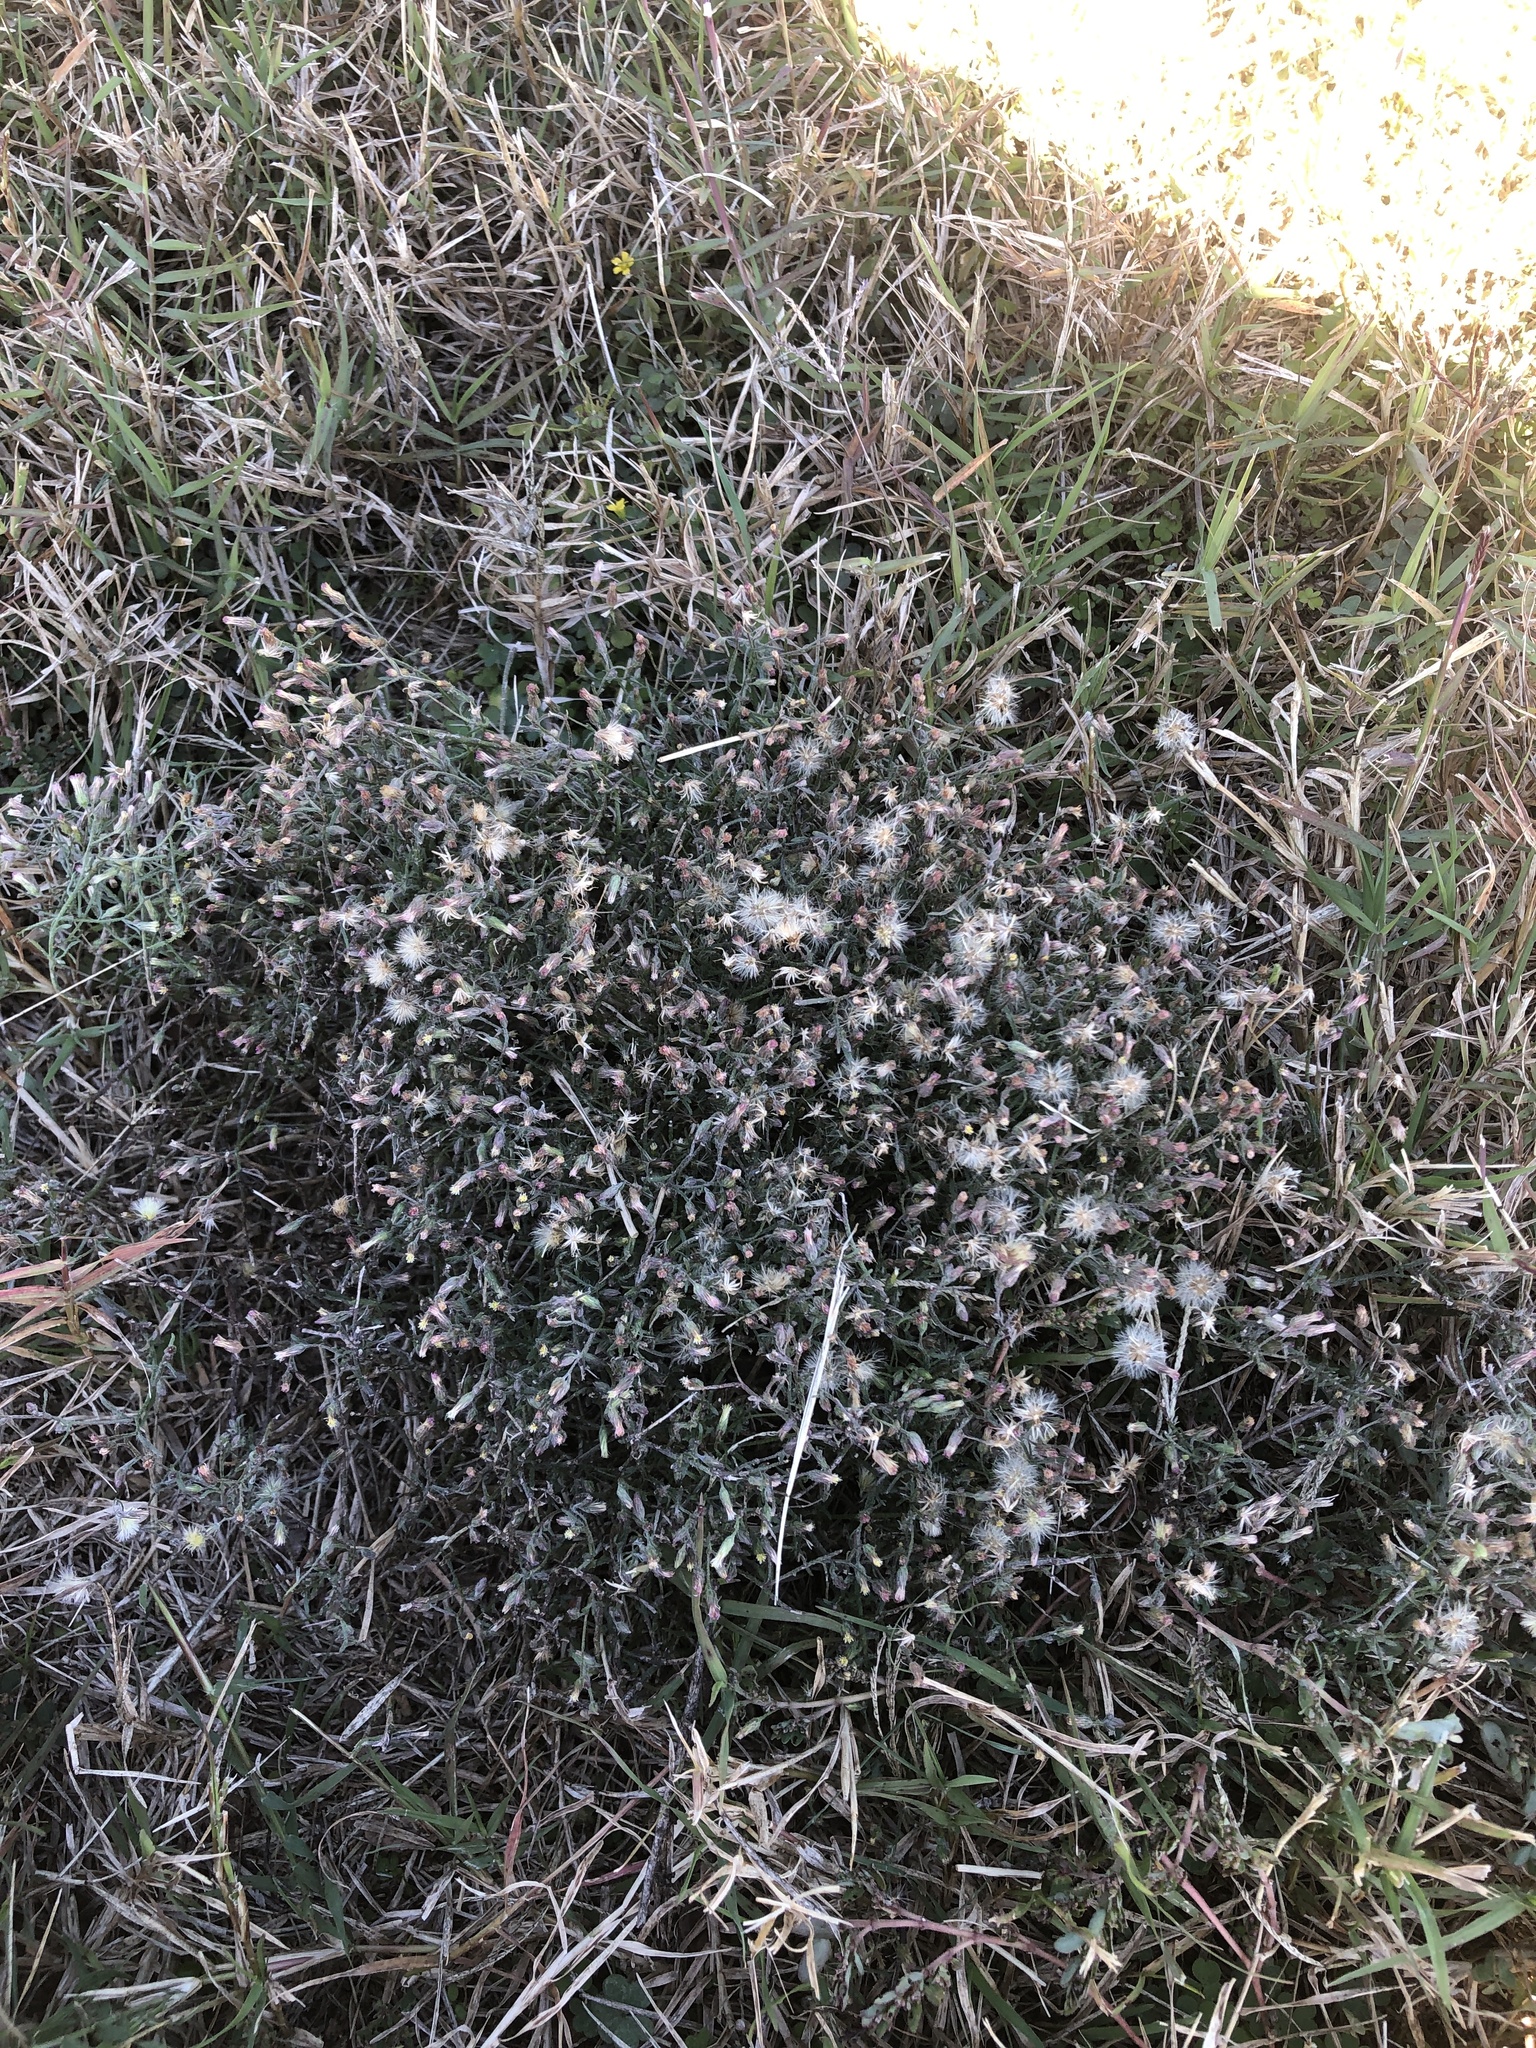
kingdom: Plantae
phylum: Tracheophyta
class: Magnoliopsida
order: Asterales
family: Asteraceae
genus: Erigeron
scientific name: Erigeron divaricatus
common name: Dwarf conyza
